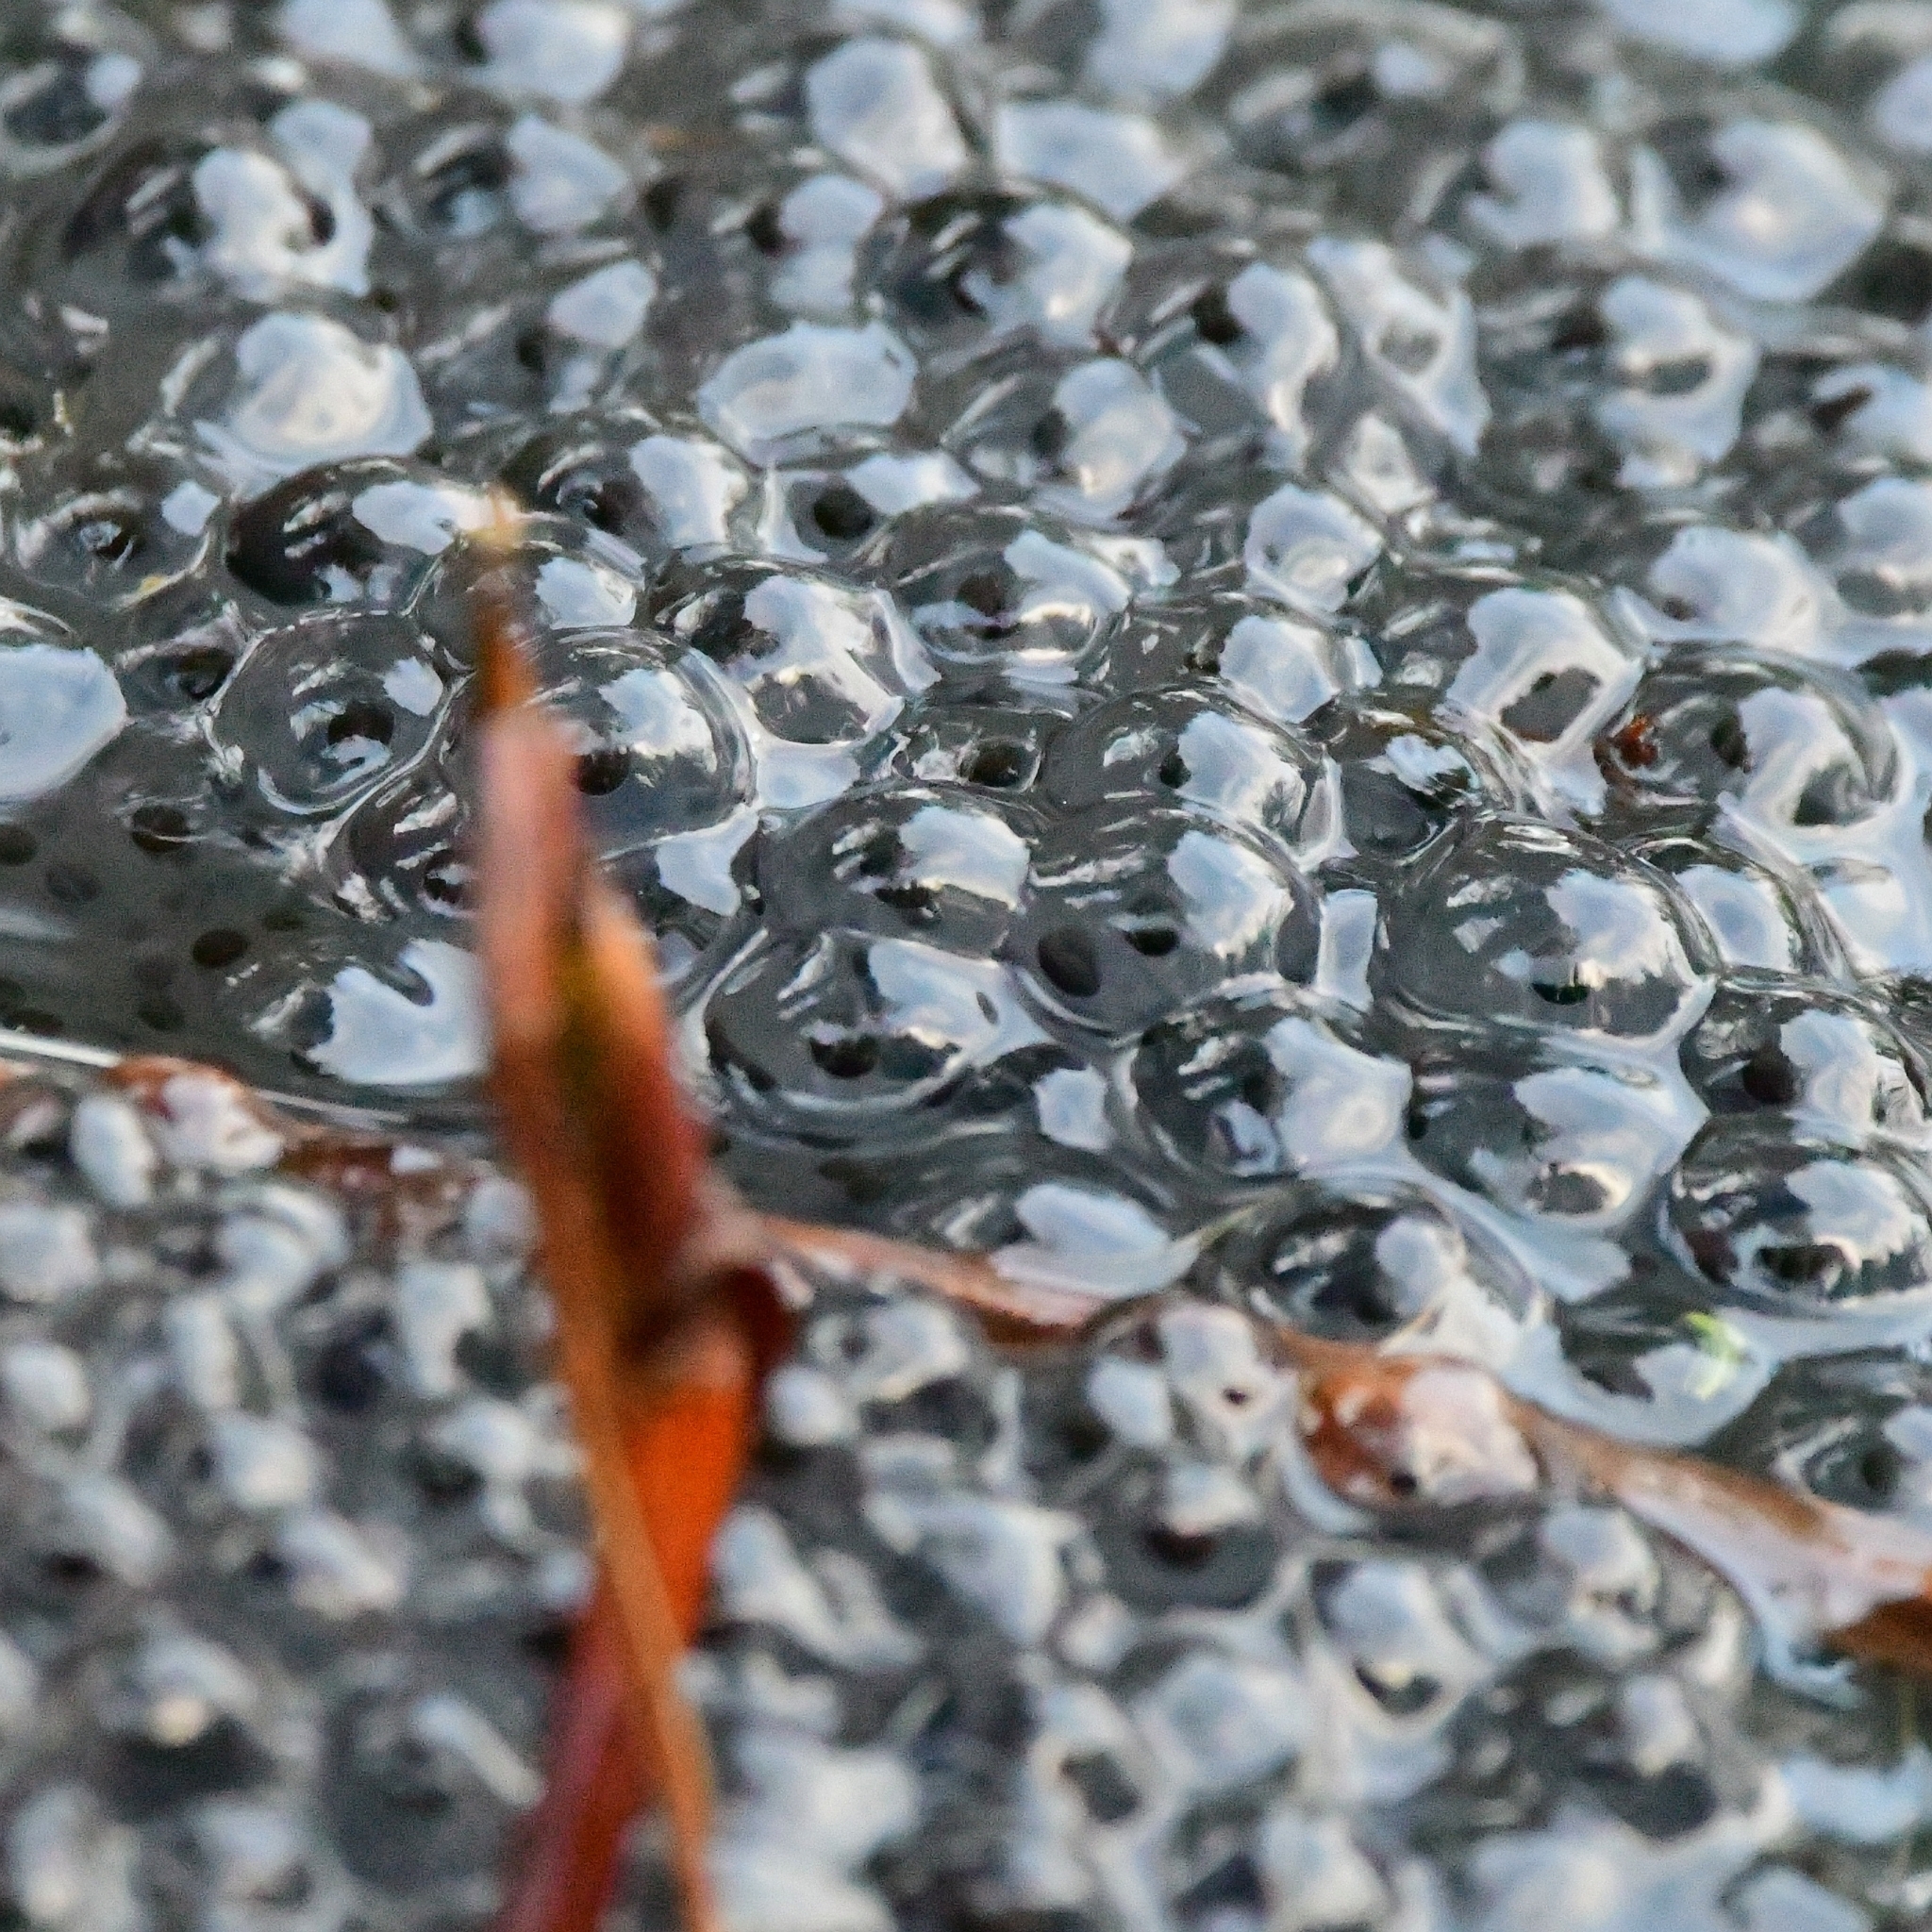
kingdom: Animalia
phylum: Chordata
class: Amphibia
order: Anura
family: Ranidae
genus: Rana
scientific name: Rana temporaria
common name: Common frog
